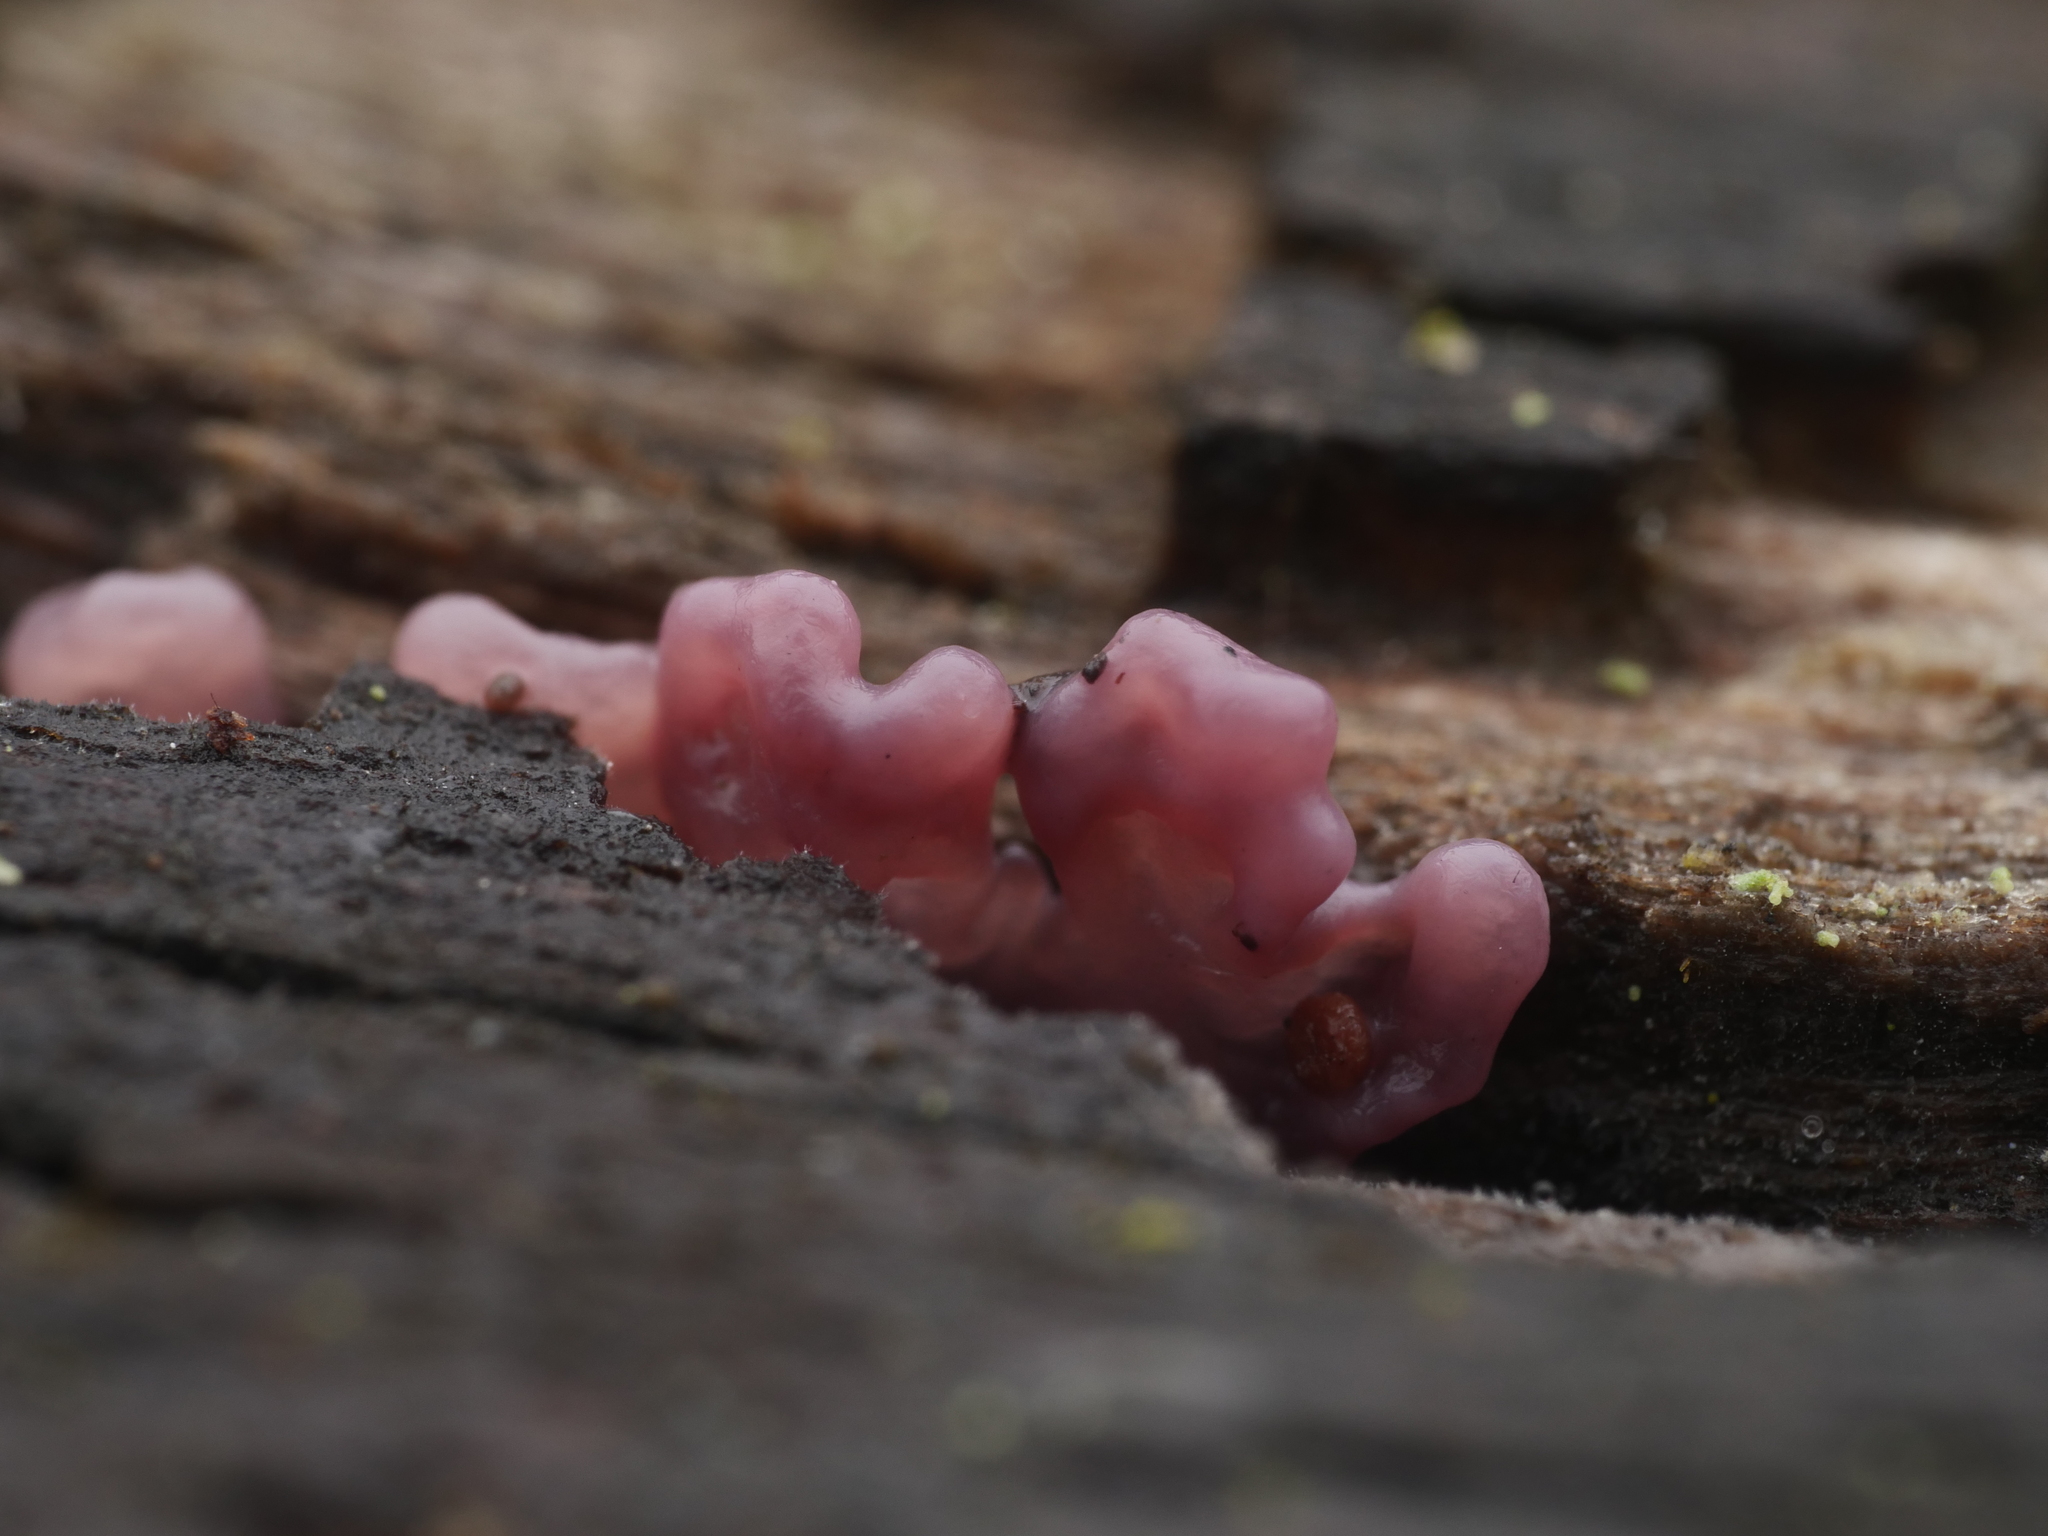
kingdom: Fungi
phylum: Ascomycota
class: Leotiomycetes
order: Helotiales
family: Gelatinodiscaceae
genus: Ascocoryne
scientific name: Ascocoryne sarcoides
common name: Purple jellydisc
